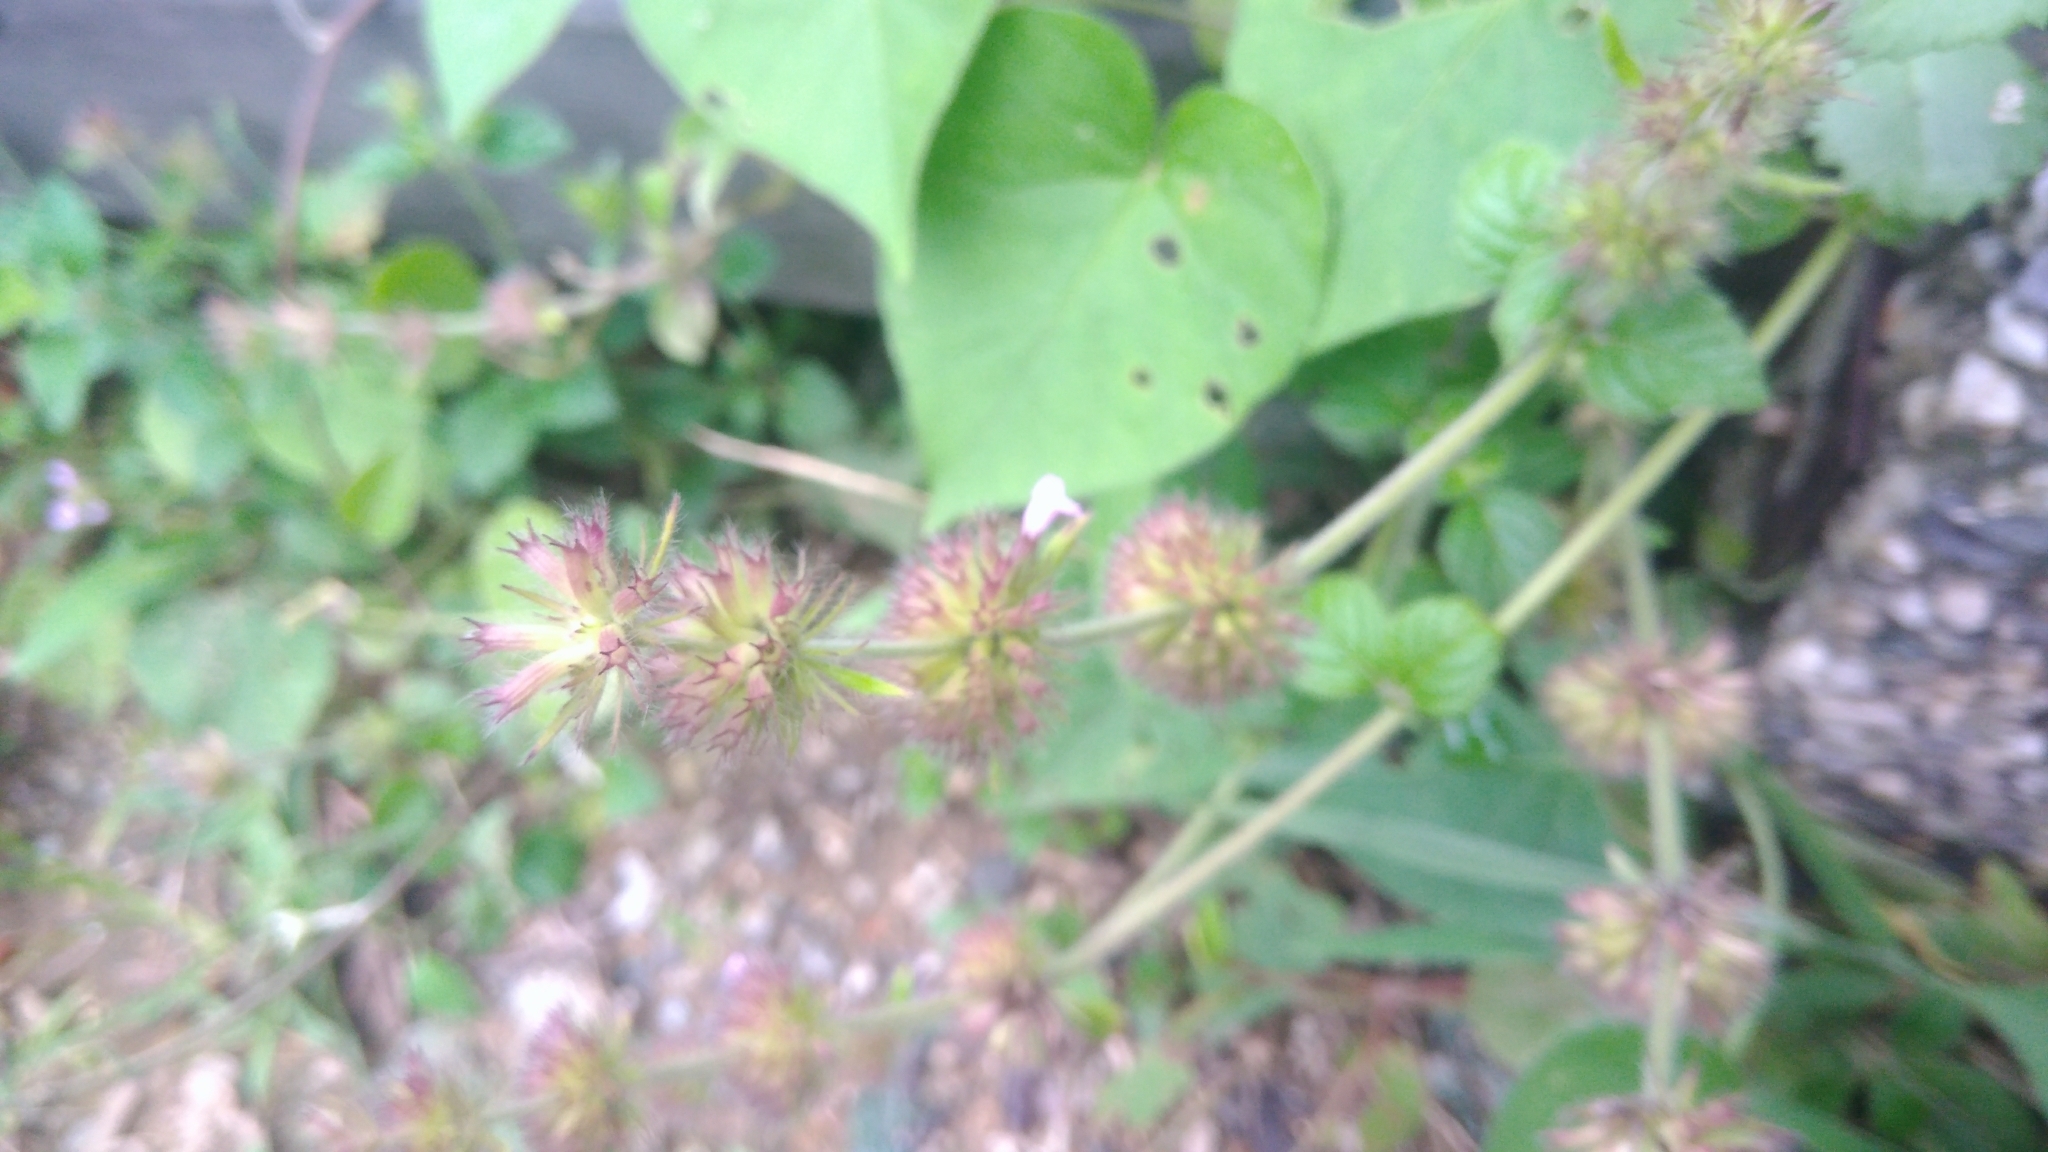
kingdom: Plantae
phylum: Tracheophyta
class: Magnoliopsida
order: Lamiales
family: Lamiaceae
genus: Clinopodium
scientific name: Clinopodium chinense
